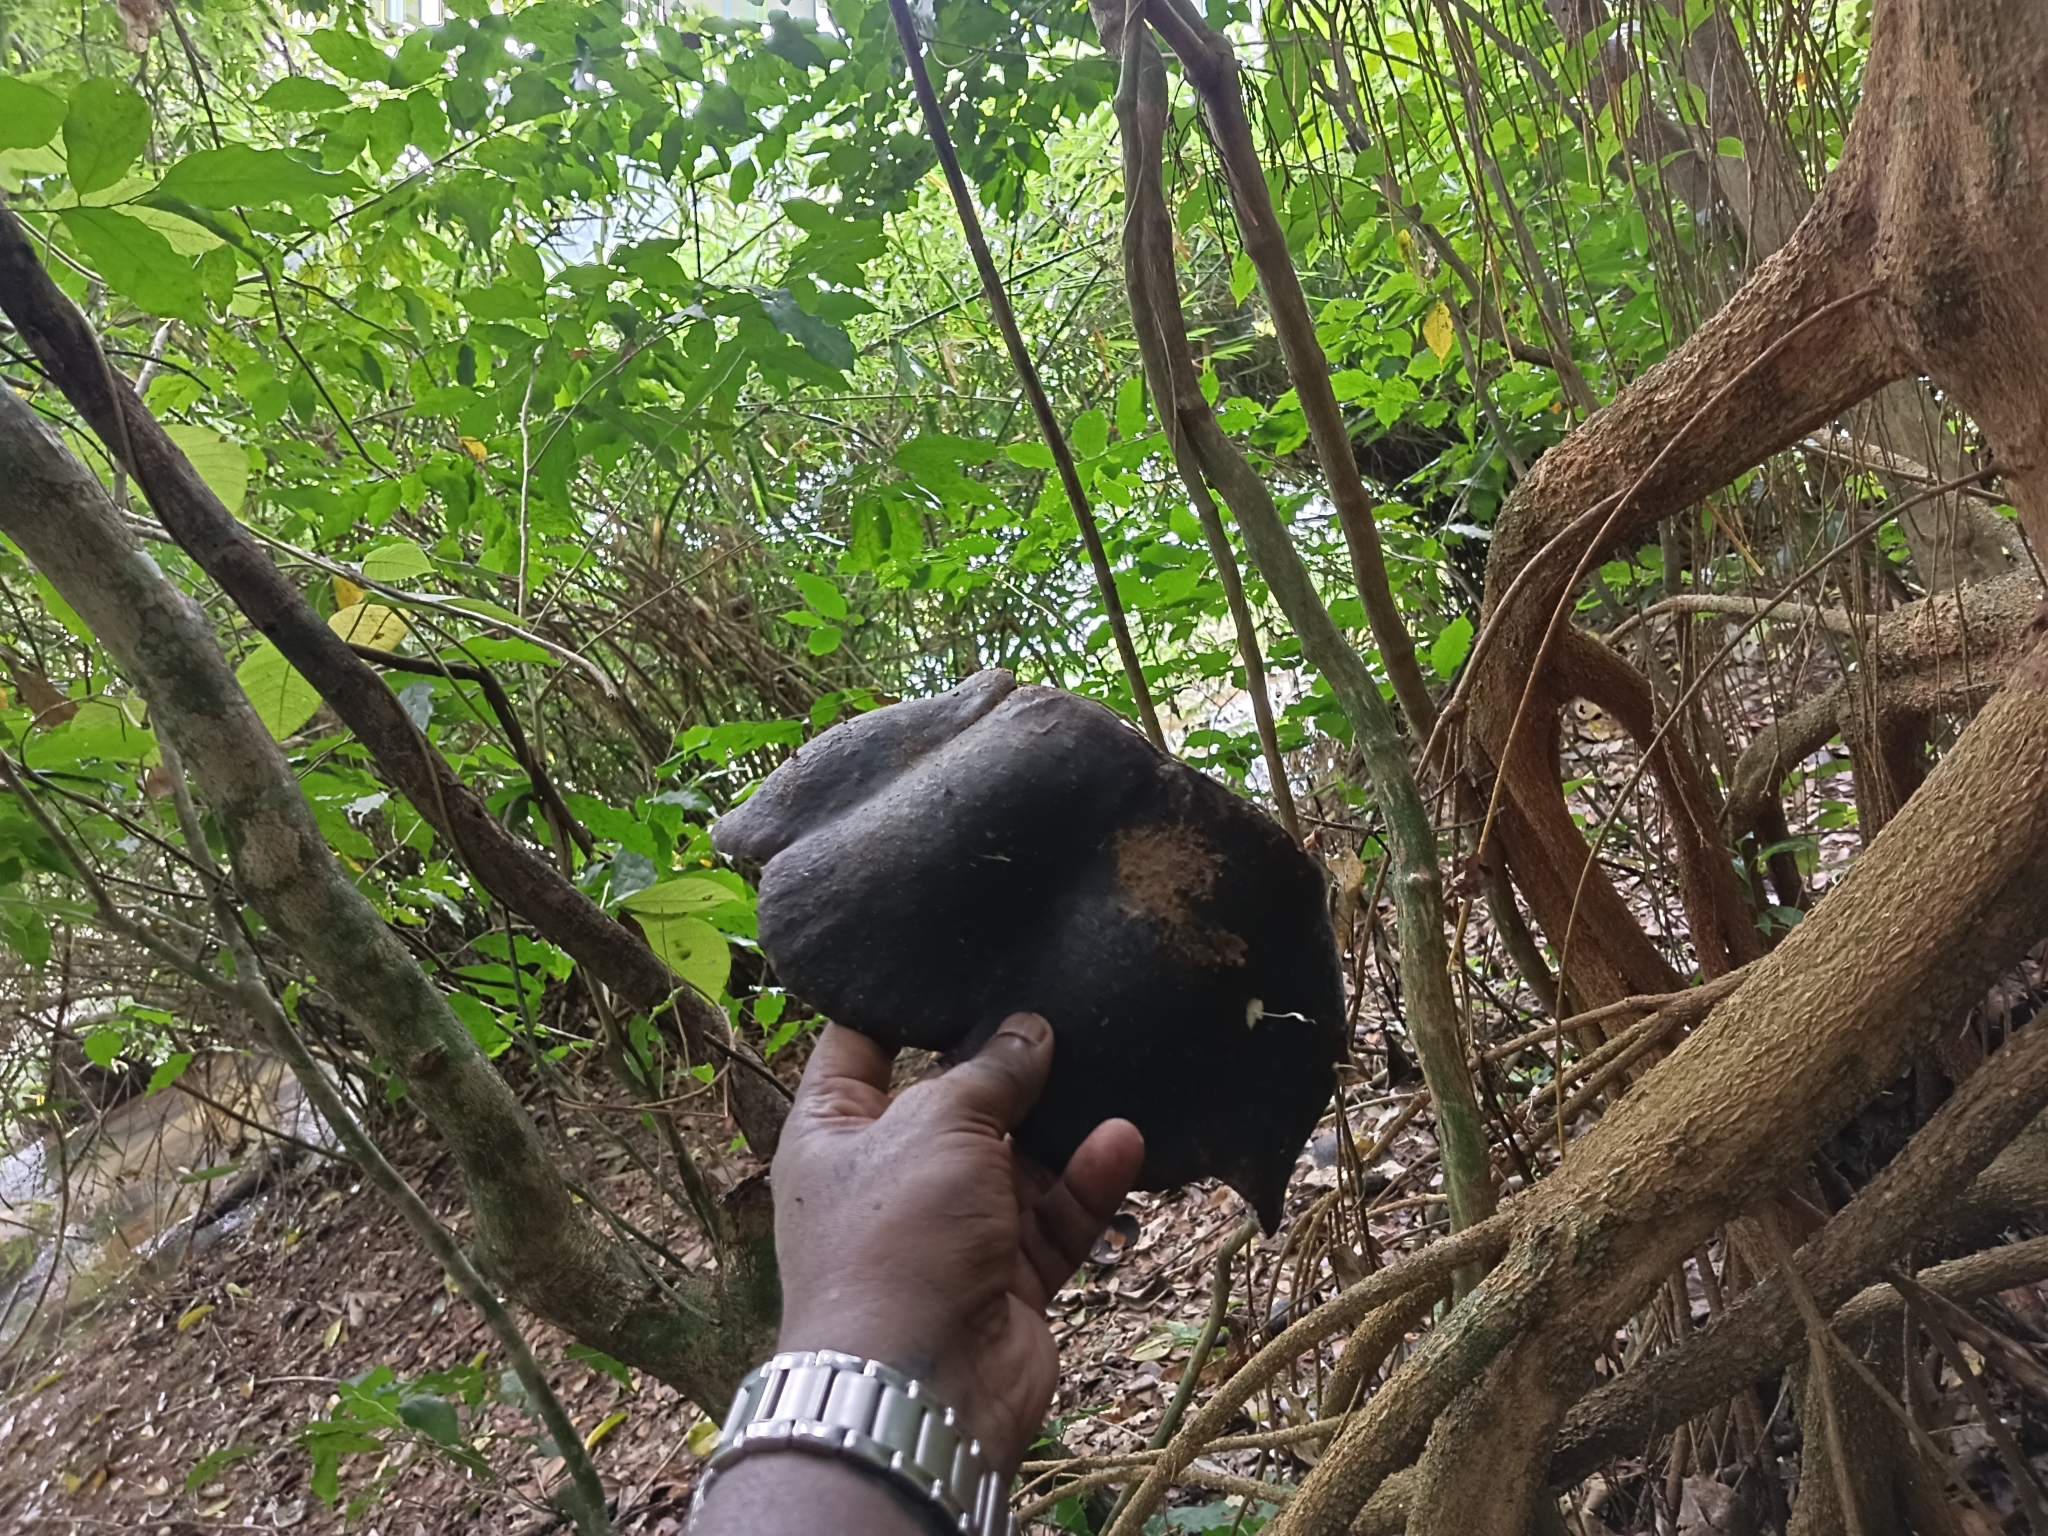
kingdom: Plantae
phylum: Tracheophyta
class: Magnoliopsida
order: Fabales
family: Fabaceae
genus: Entada
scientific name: Entada rheedei
